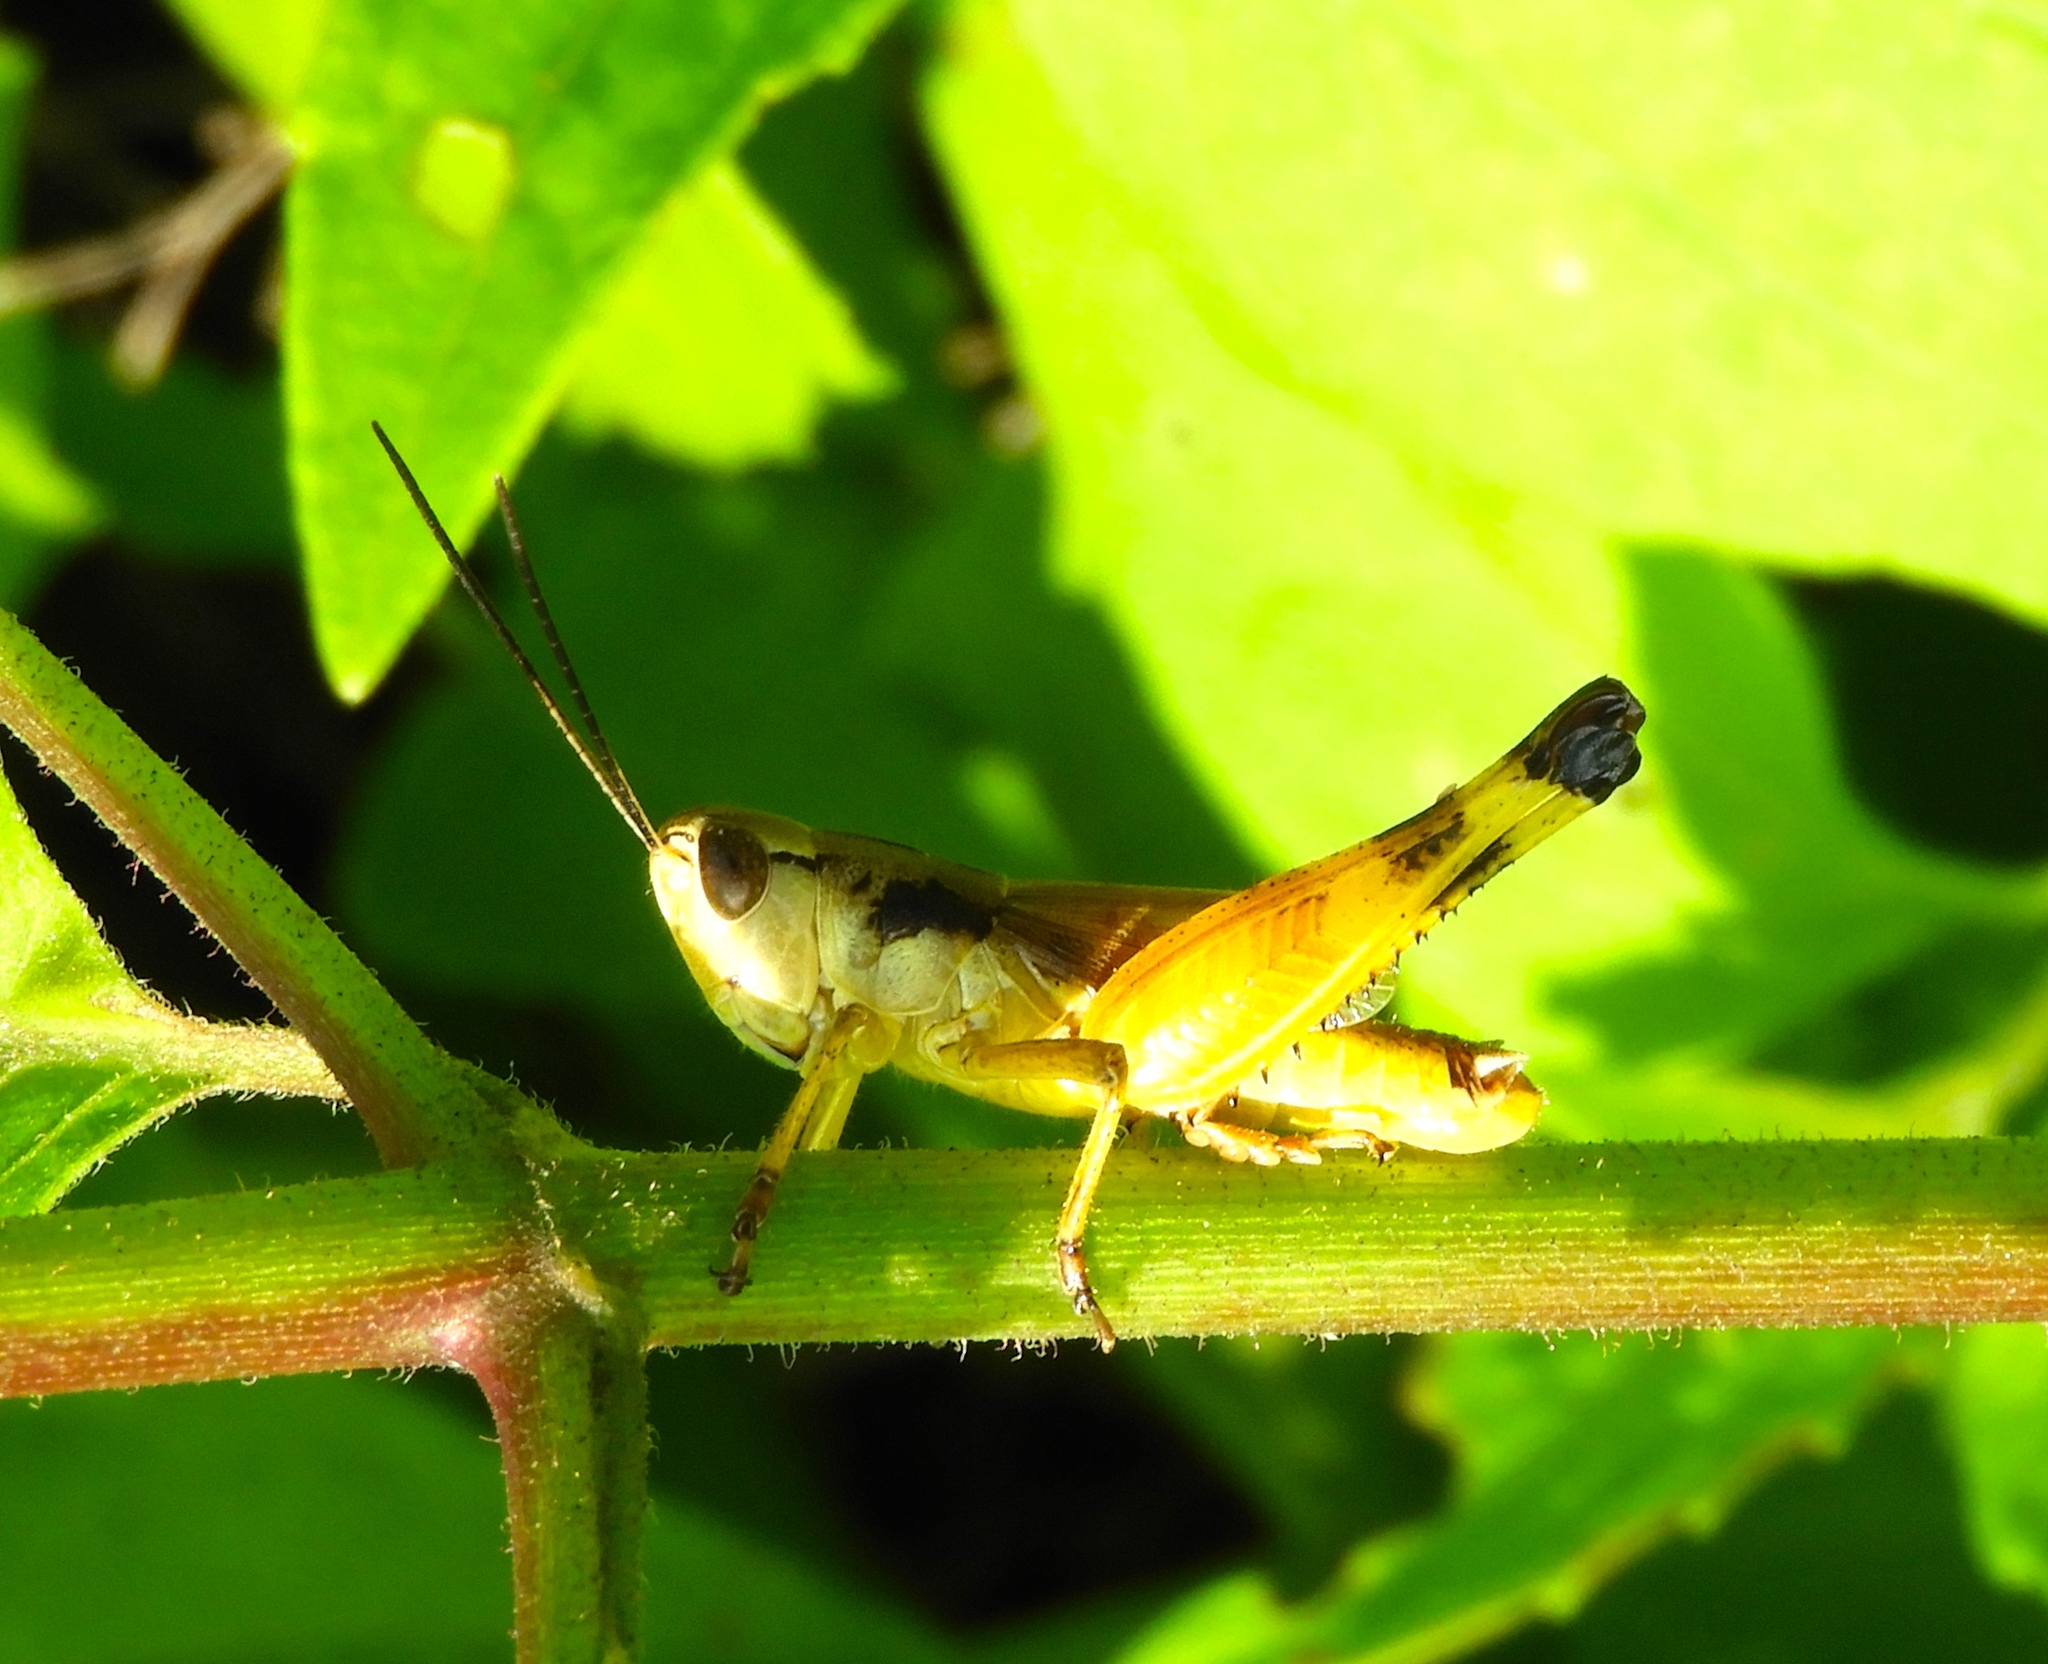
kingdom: Animalia
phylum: Arthropoda
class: Insecta
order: Orthoptera
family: Acrididae
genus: Boopedon
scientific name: Boopedon flaviventris
